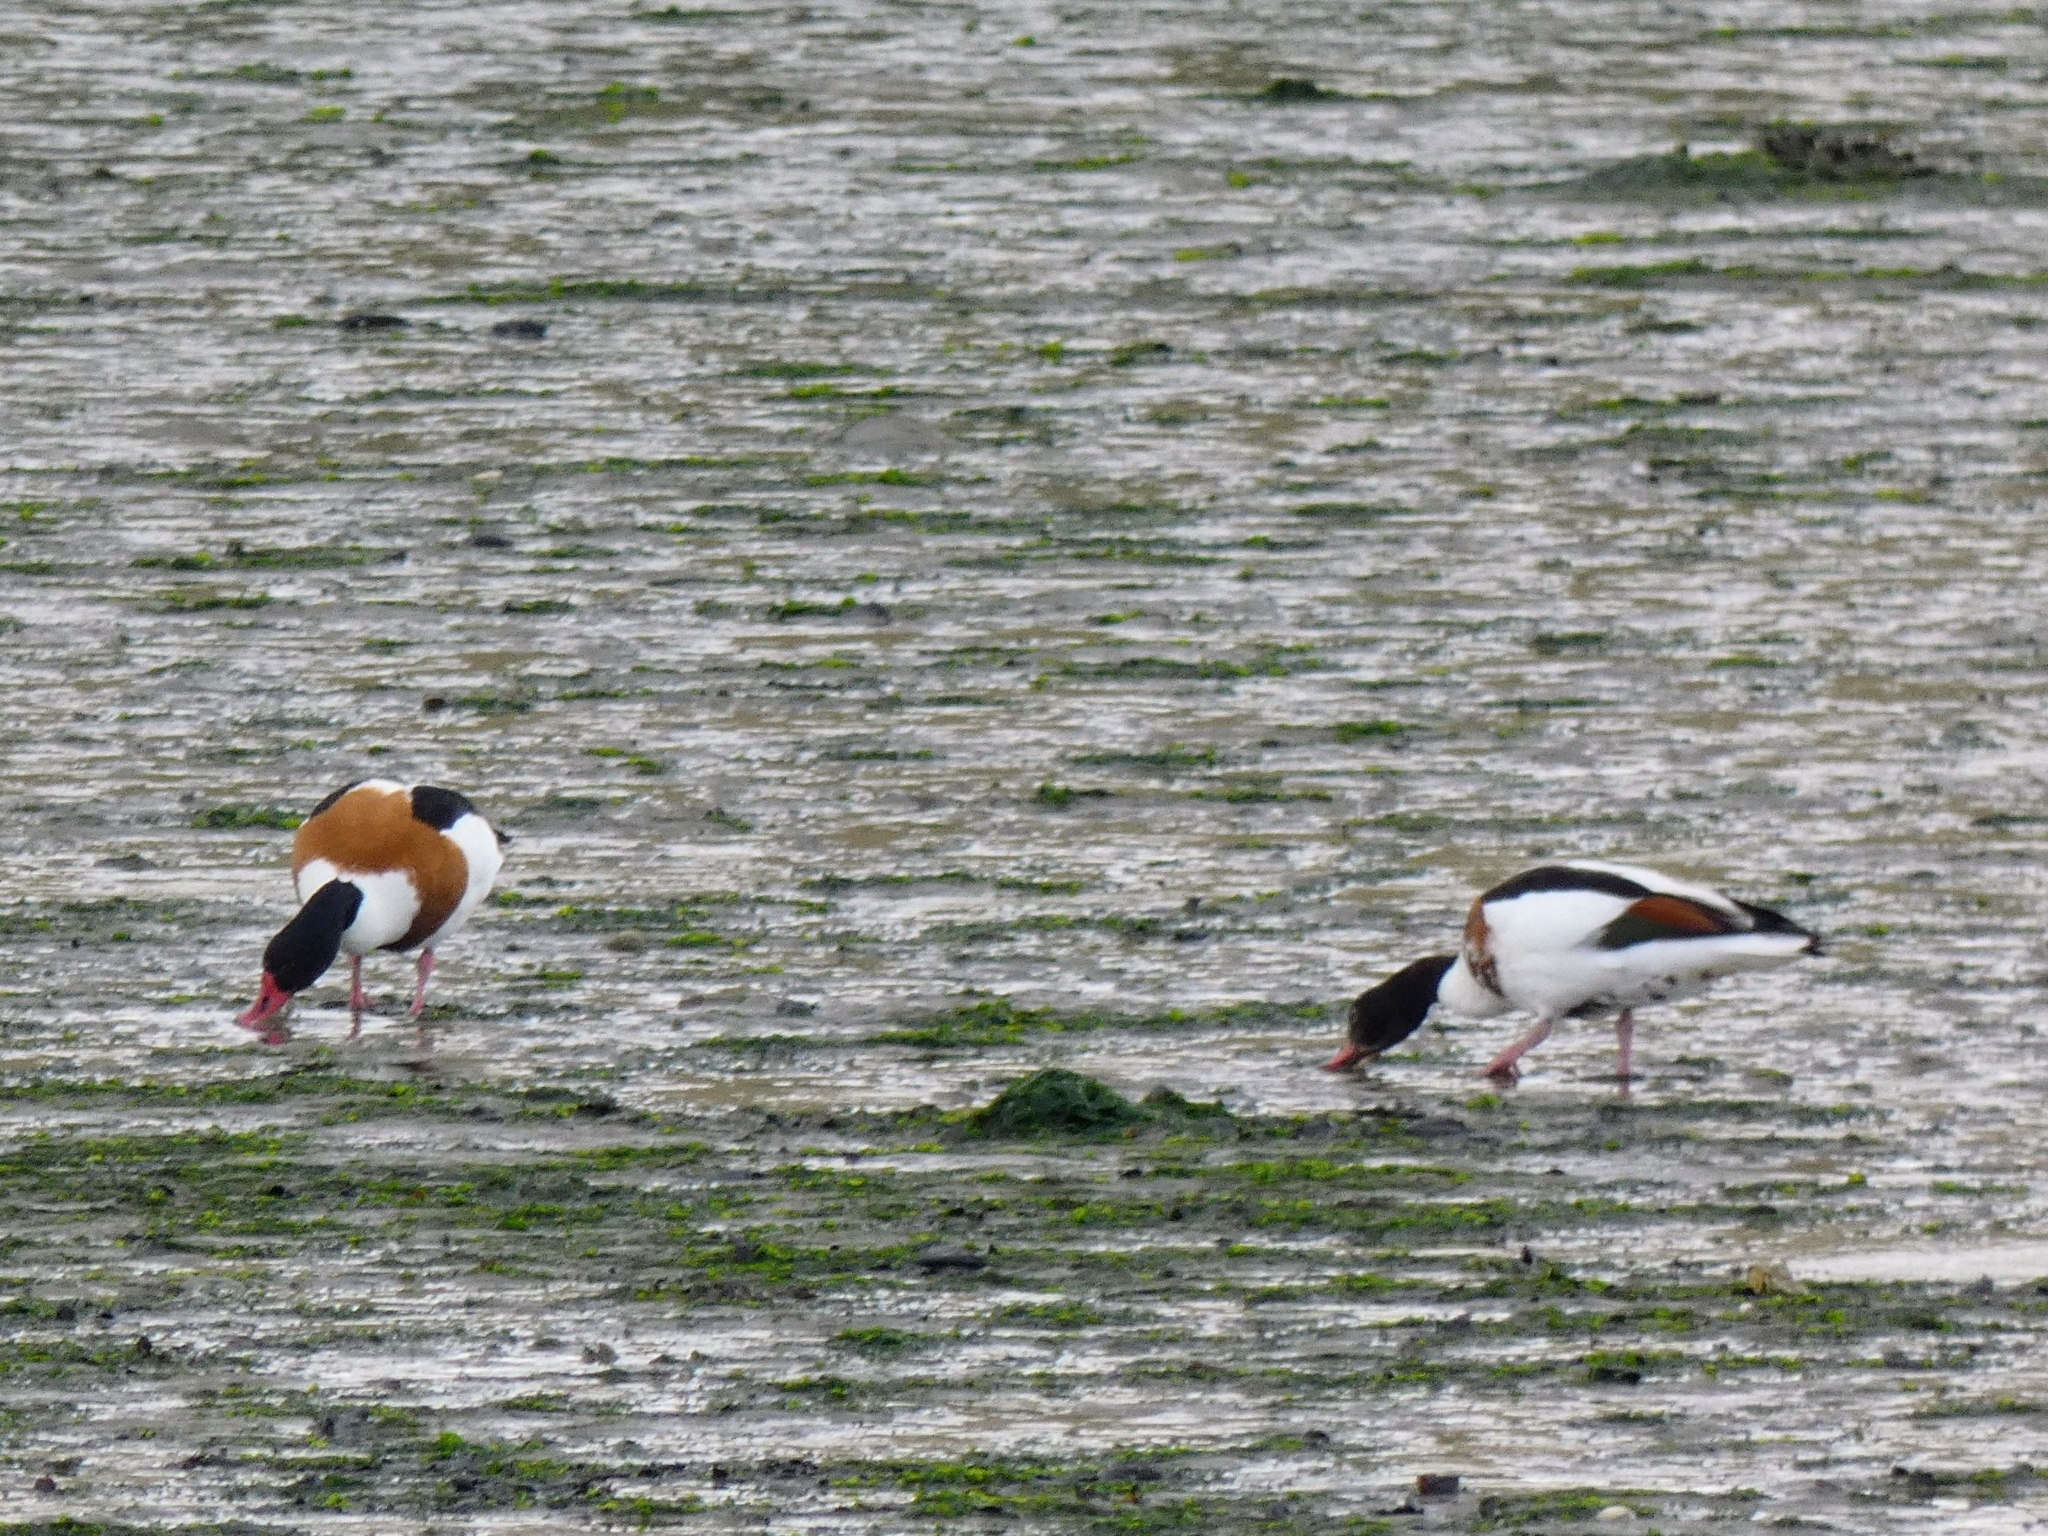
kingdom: Animalia
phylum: Chordata
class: Aves
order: Anseriformes
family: Anatidae
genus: Tadorna
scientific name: Tadorna tadorna
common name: Common shelduck
